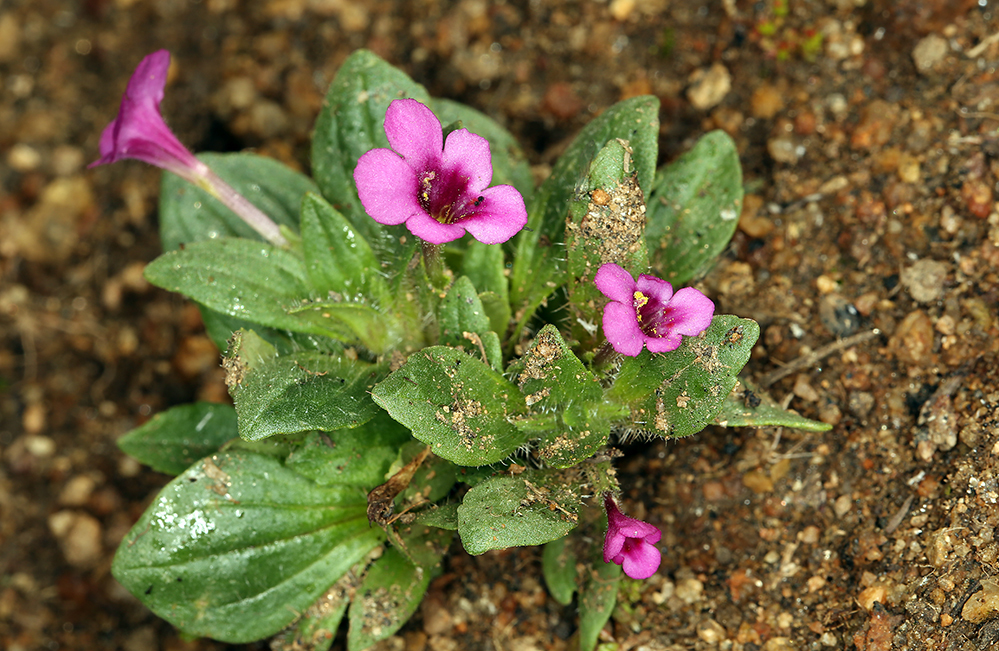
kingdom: Plantae
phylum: Tracheophyta
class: Magnoliopsida
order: Lamiales
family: Phrymaceae
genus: Diplacus
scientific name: Diplacus congdonii
